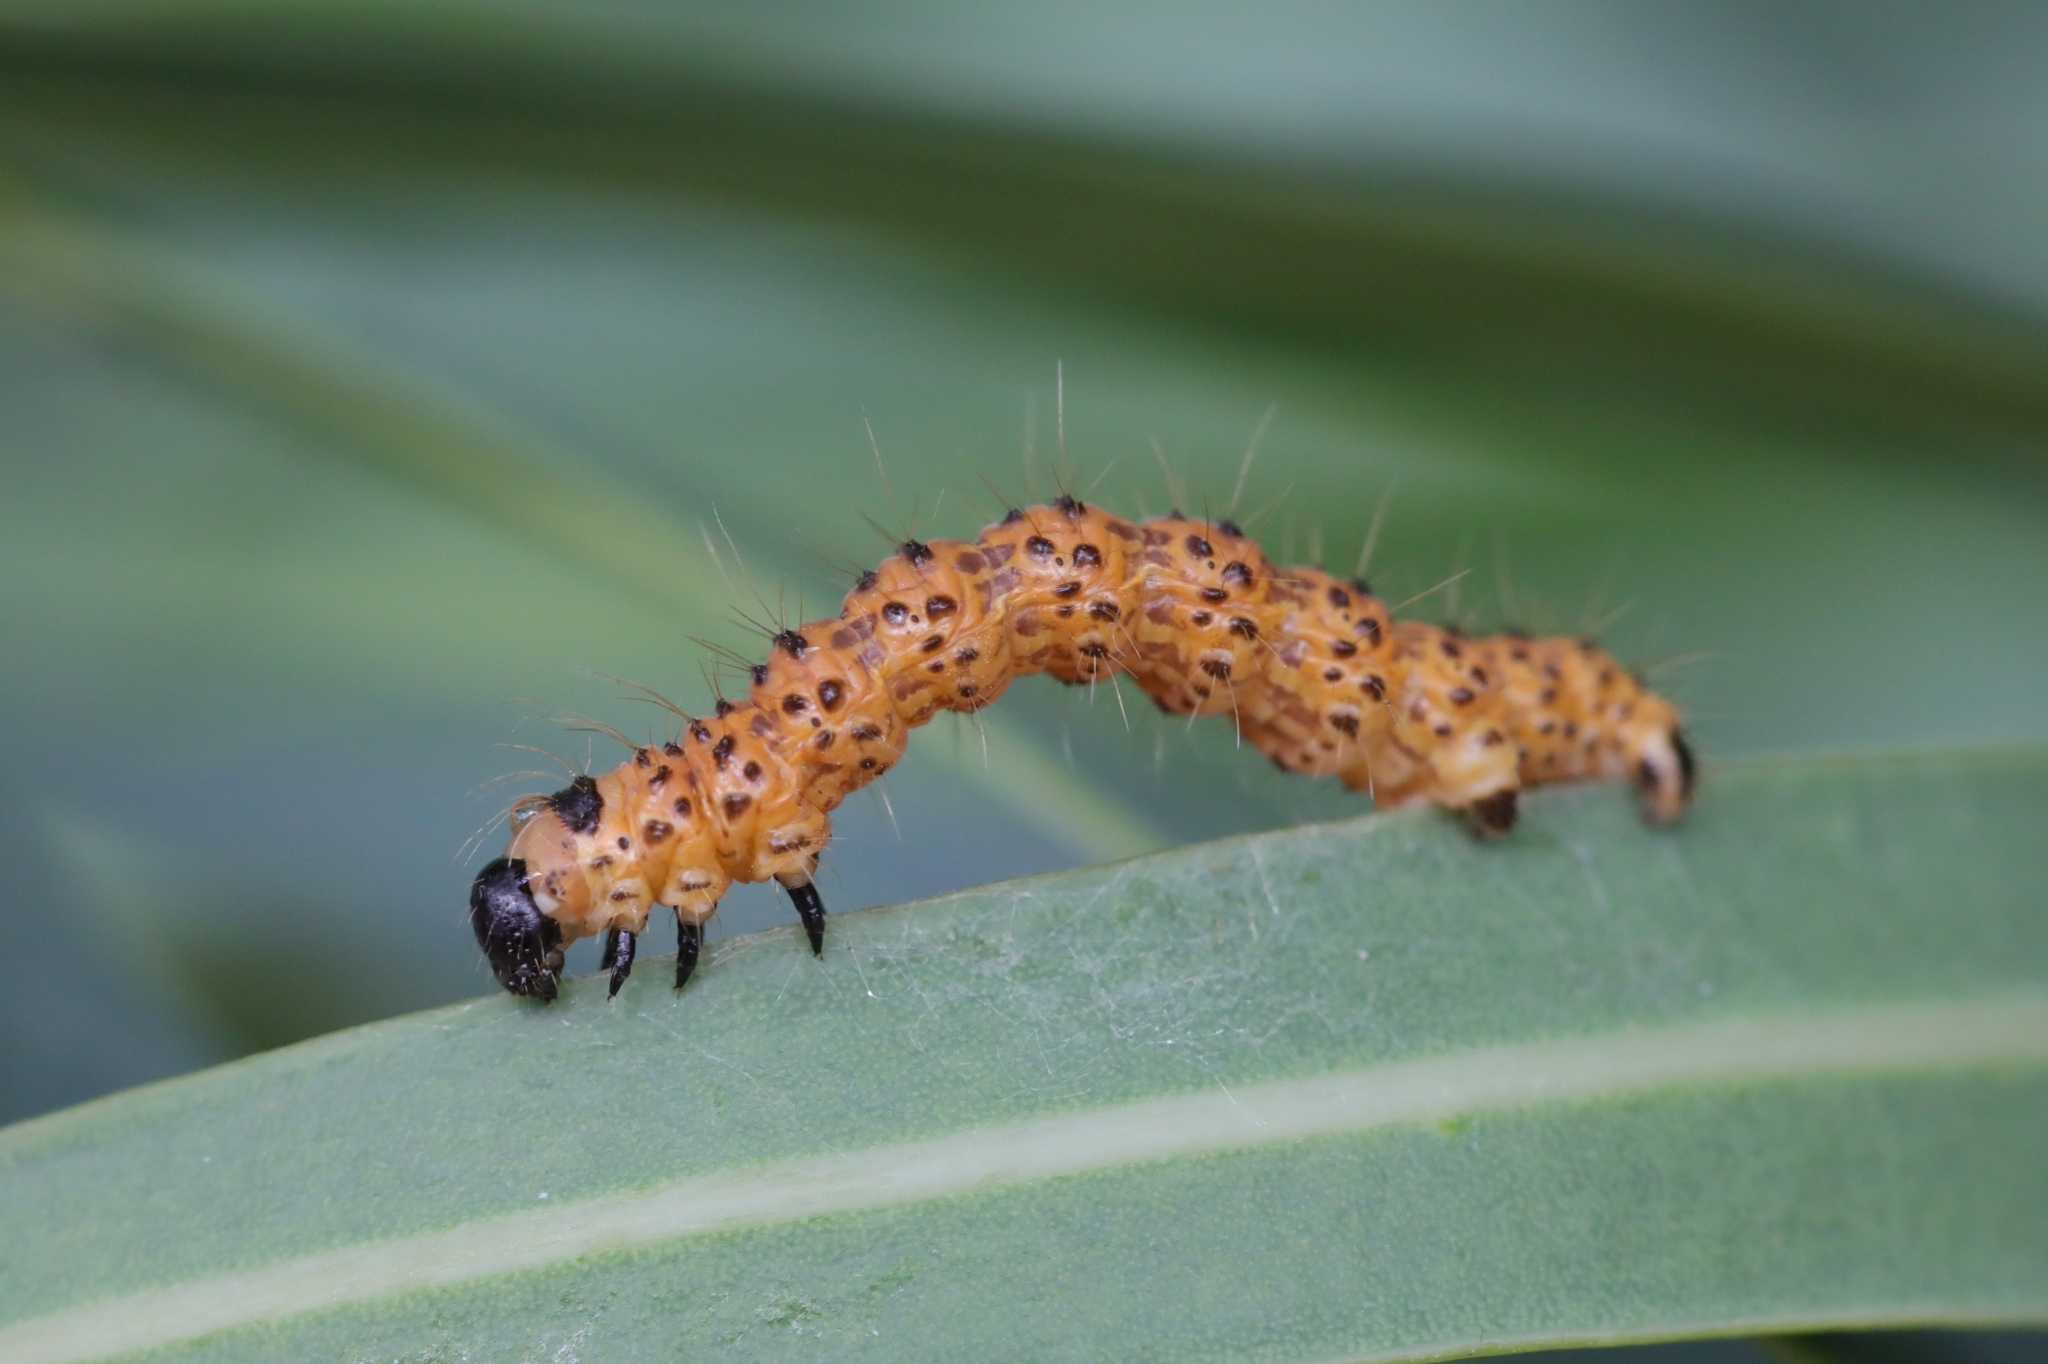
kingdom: Animalia
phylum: Arthropoda
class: Insecta
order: Lepidoptera
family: Geometridae
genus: Zerenopsis
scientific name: Zerenopsis lepida
